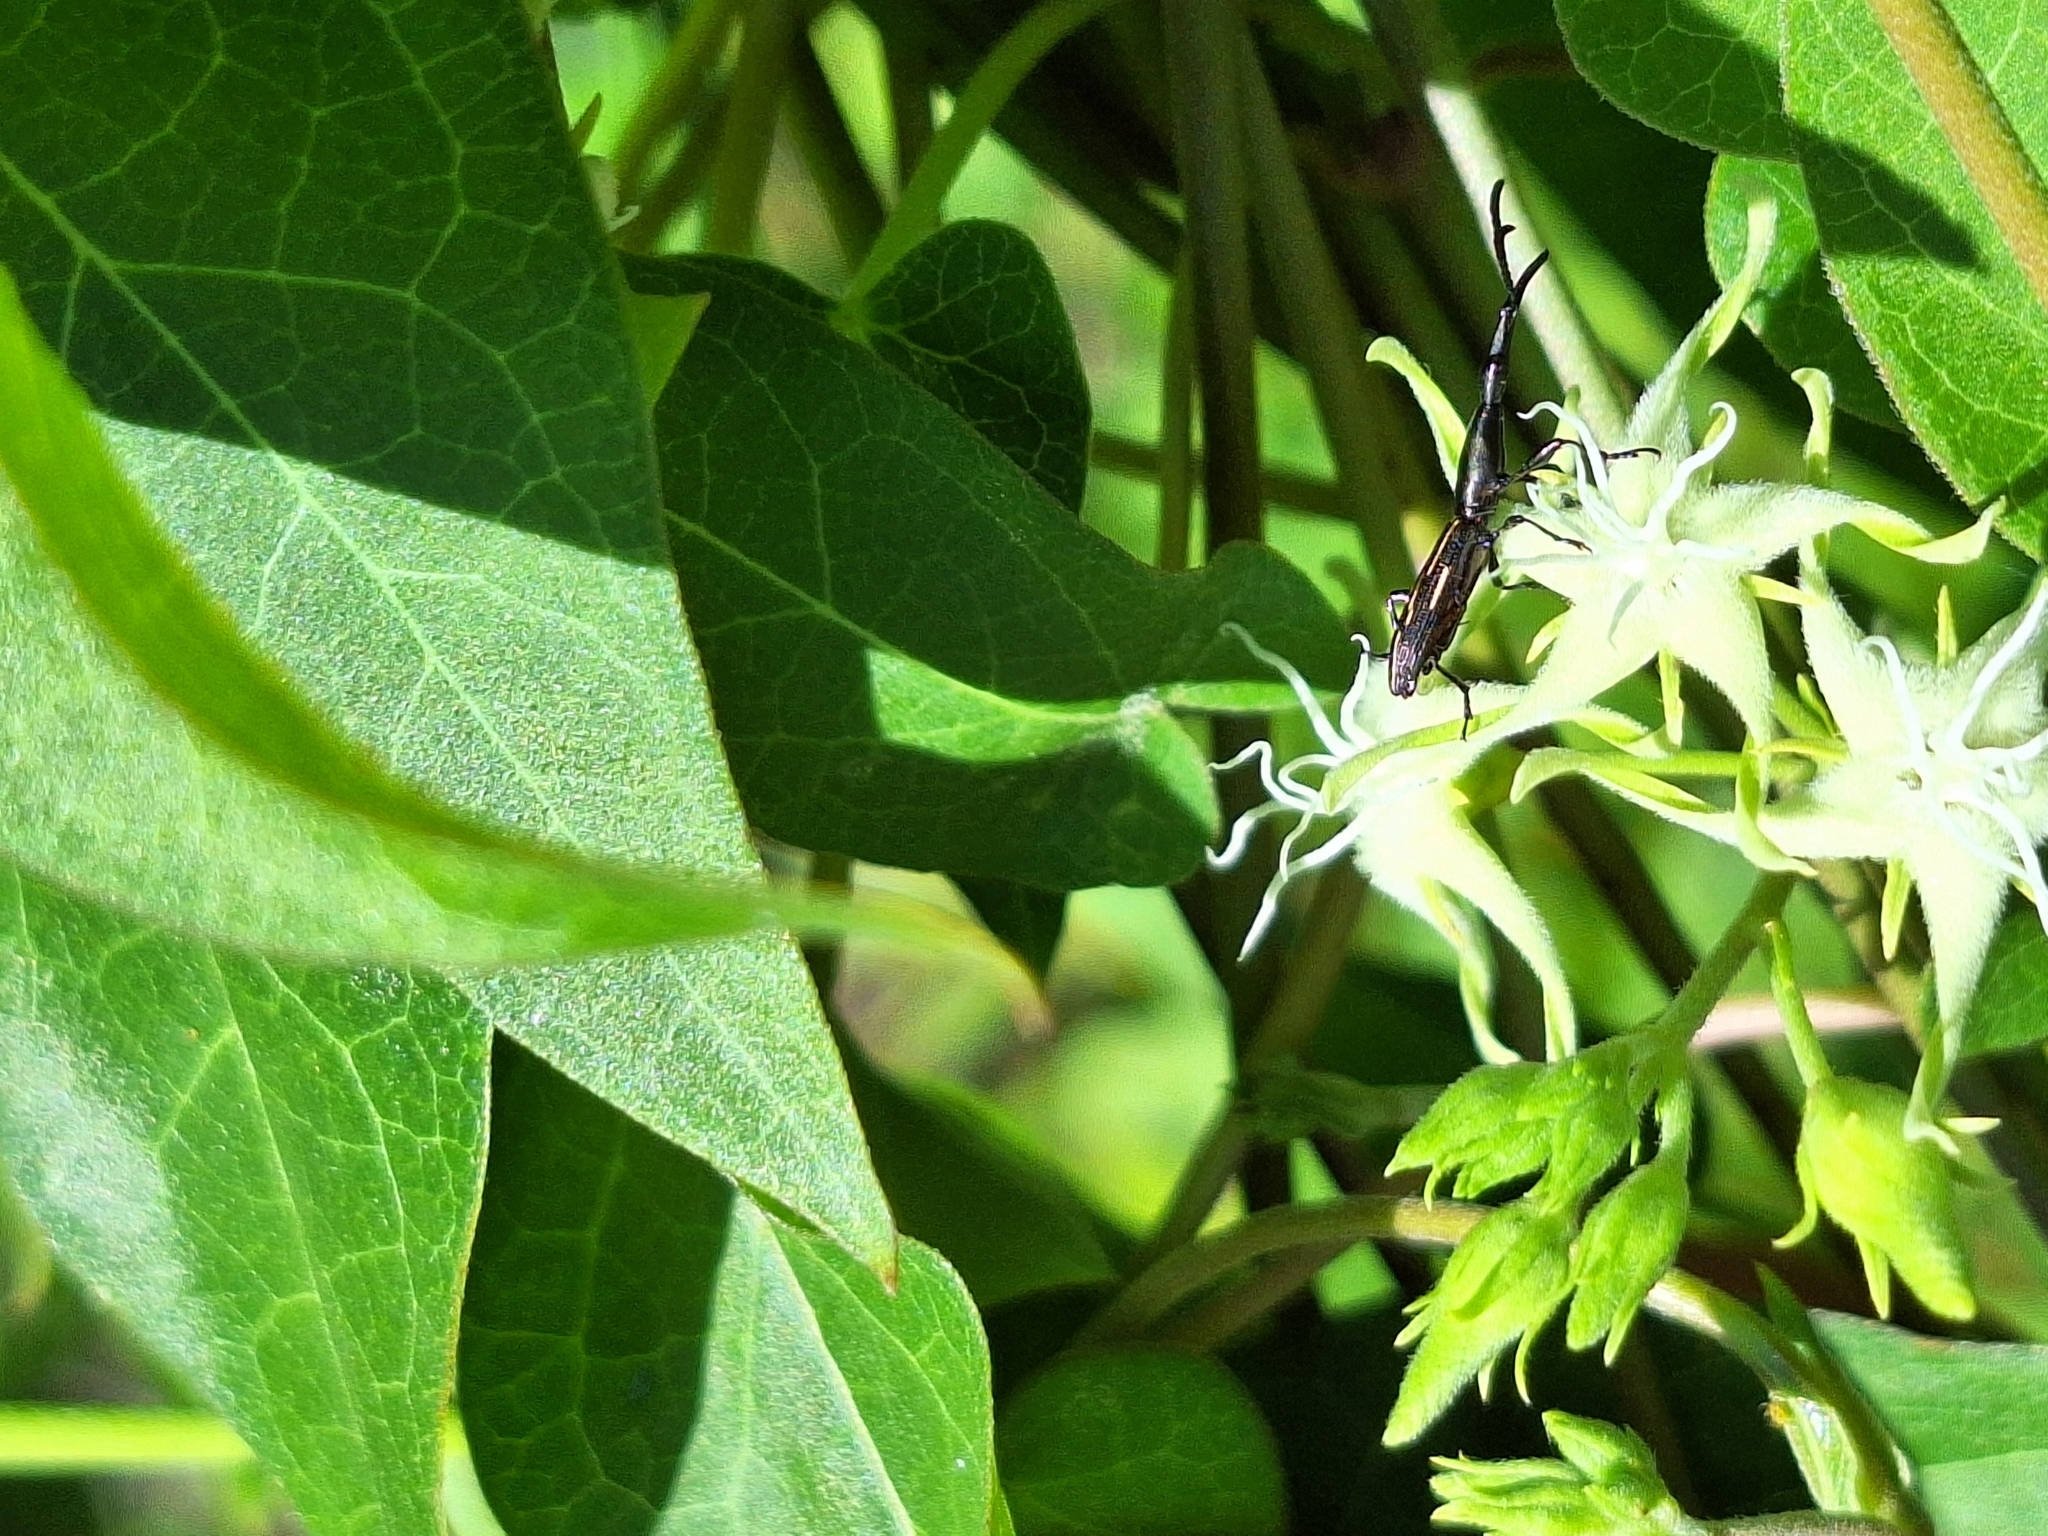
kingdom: Animalia
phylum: Arthropoda
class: Insecta
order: Coleoptera
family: Brentidae
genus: Brentus
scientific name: Brentus rufiventris
